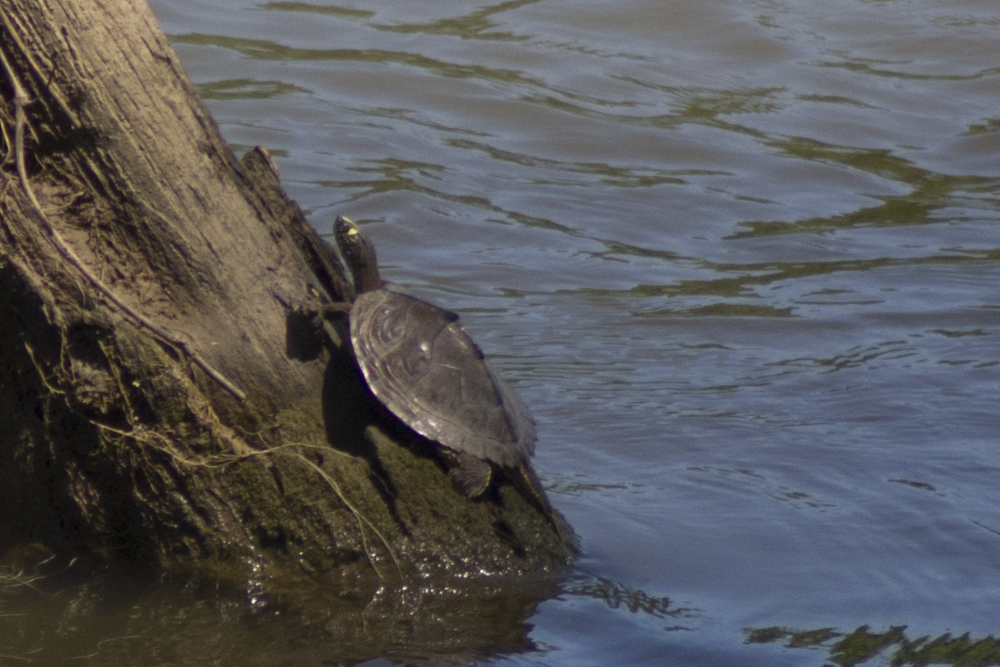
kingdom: Animalia
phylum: Chordata
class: Testudines
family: Emydidae
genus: Graptemys
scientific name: Graptemys sabinensis
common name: Sabine map turtle
